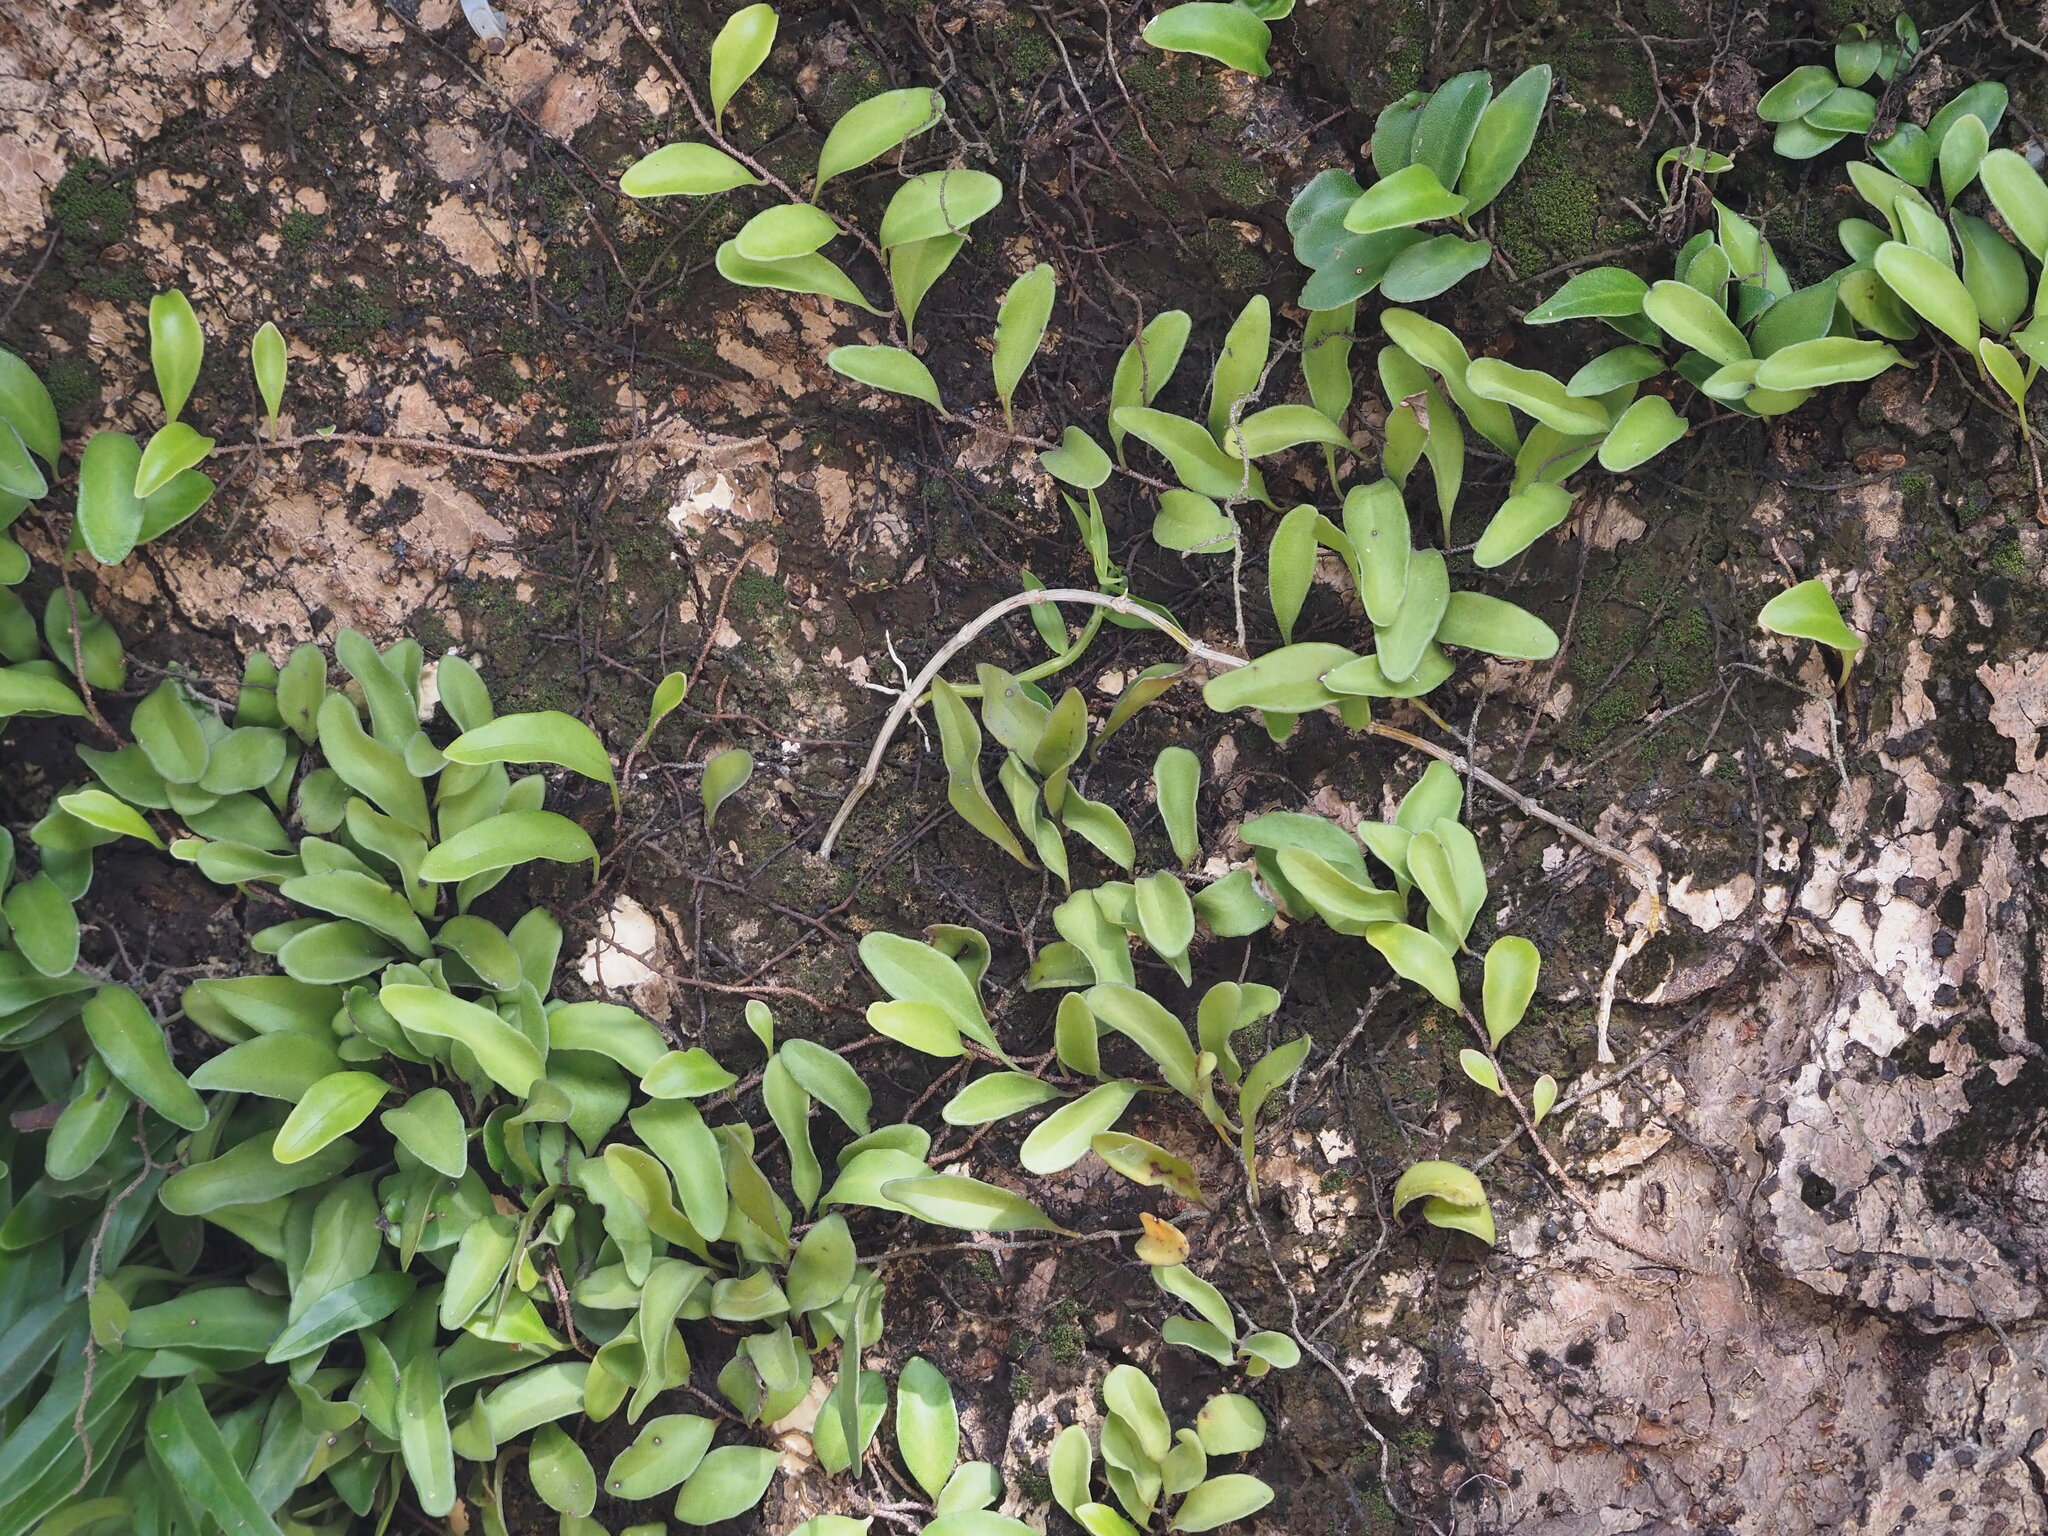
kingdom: Plantae
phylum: Tracheophyta
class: Polypodiopsida
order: Polypodiales
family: Polypodiaceae
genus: Pyrrosia
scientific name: Pyrrosia lanceolata
